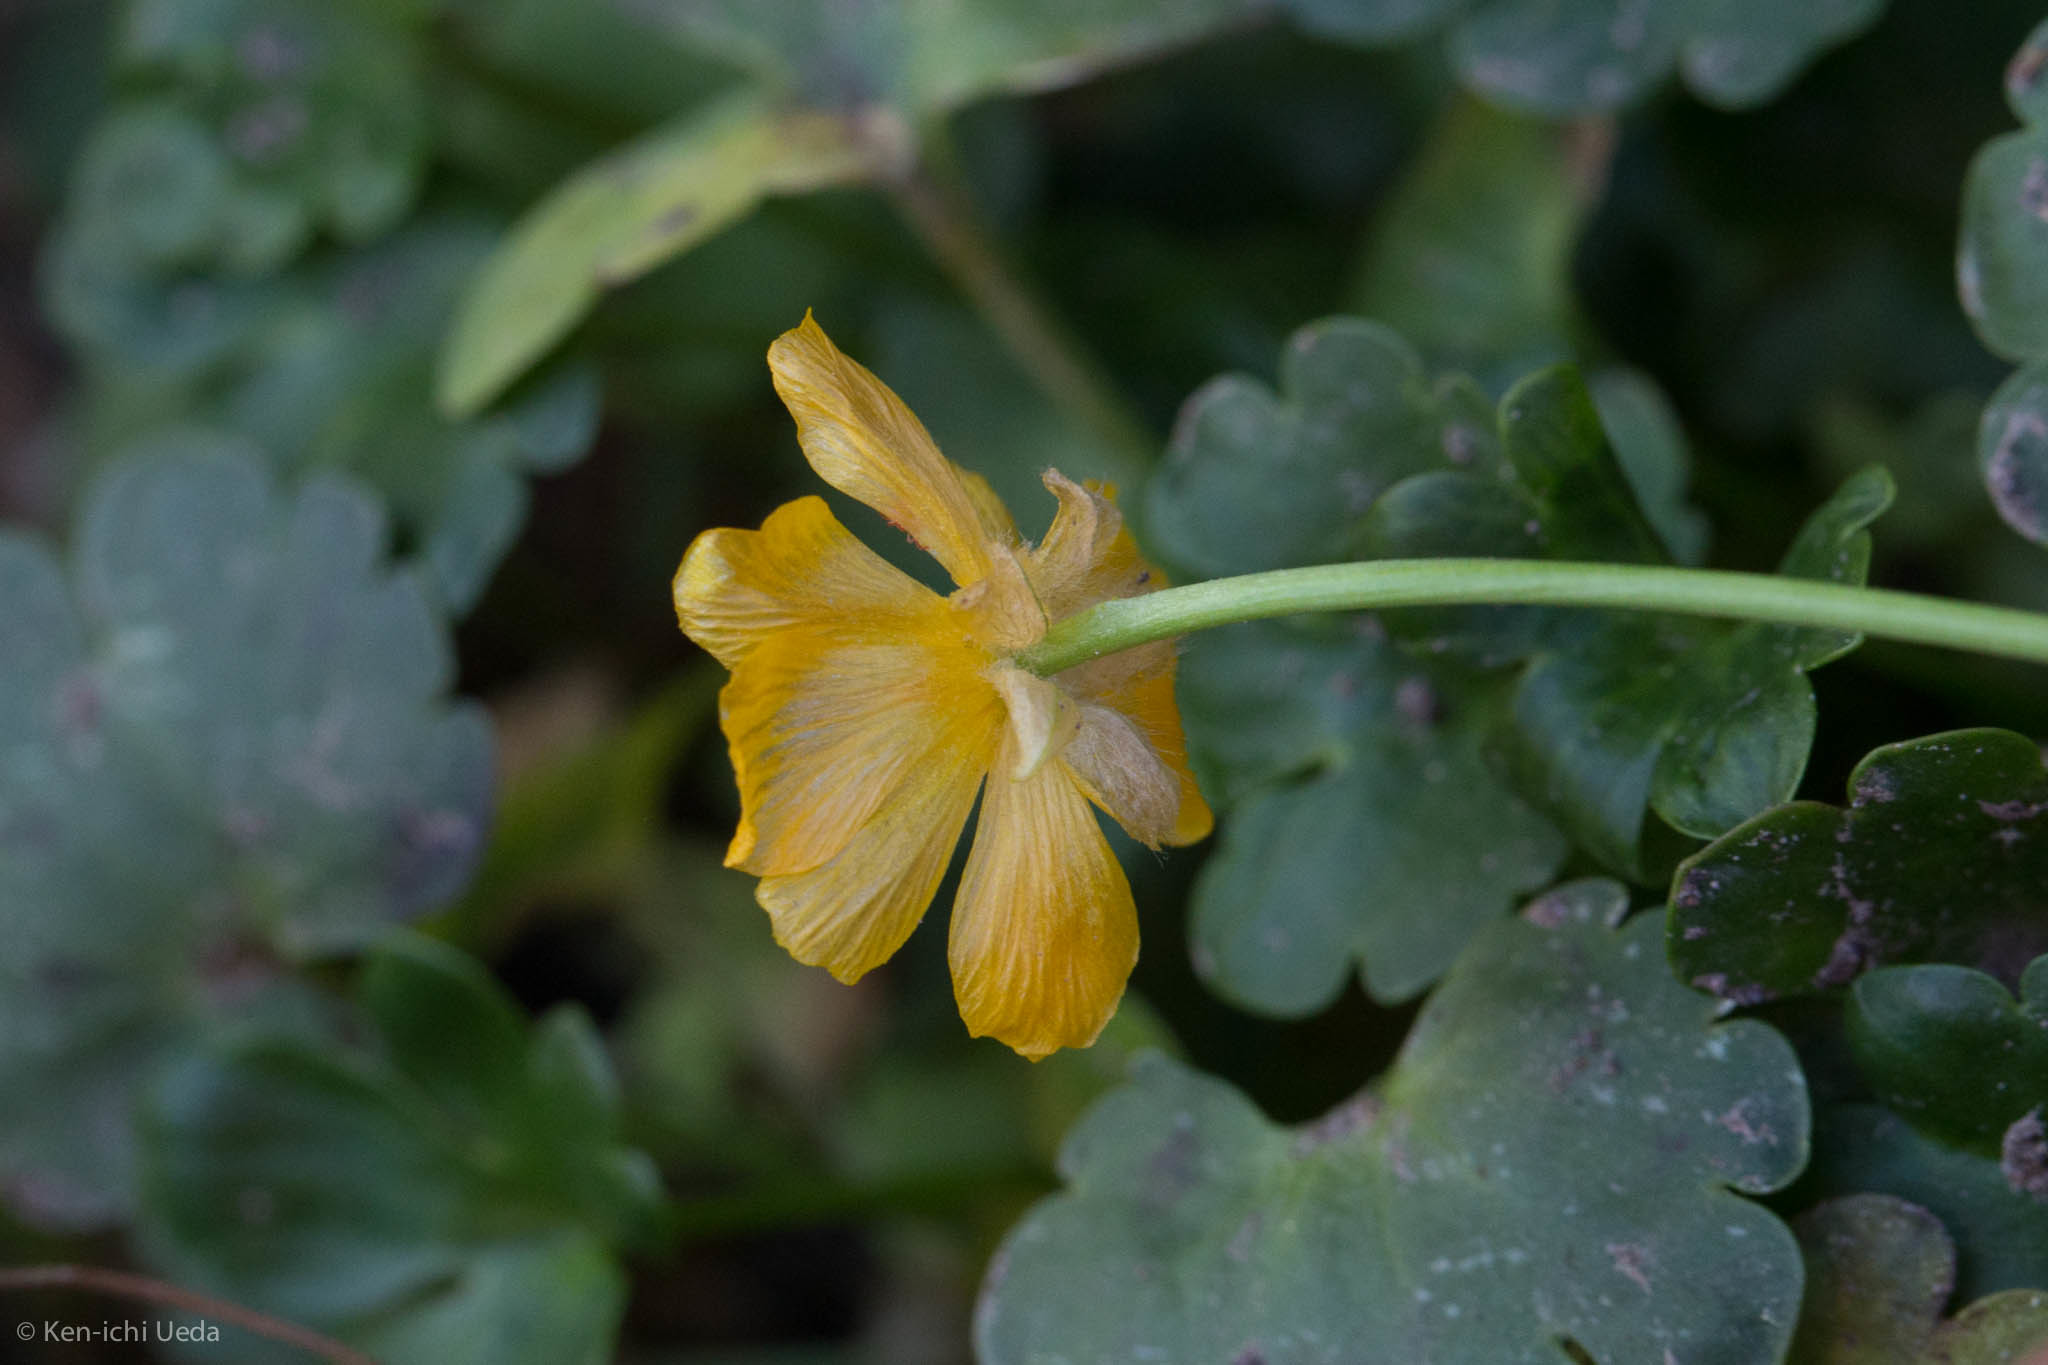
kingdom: Plantae
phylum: Tracheophyta
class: Magnoliopsida
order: Ranunculales
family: Ranunculaceae
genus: Ranunculus
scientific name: Ranunculus eschscholtzii
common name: Eschscholtz's buttercup
